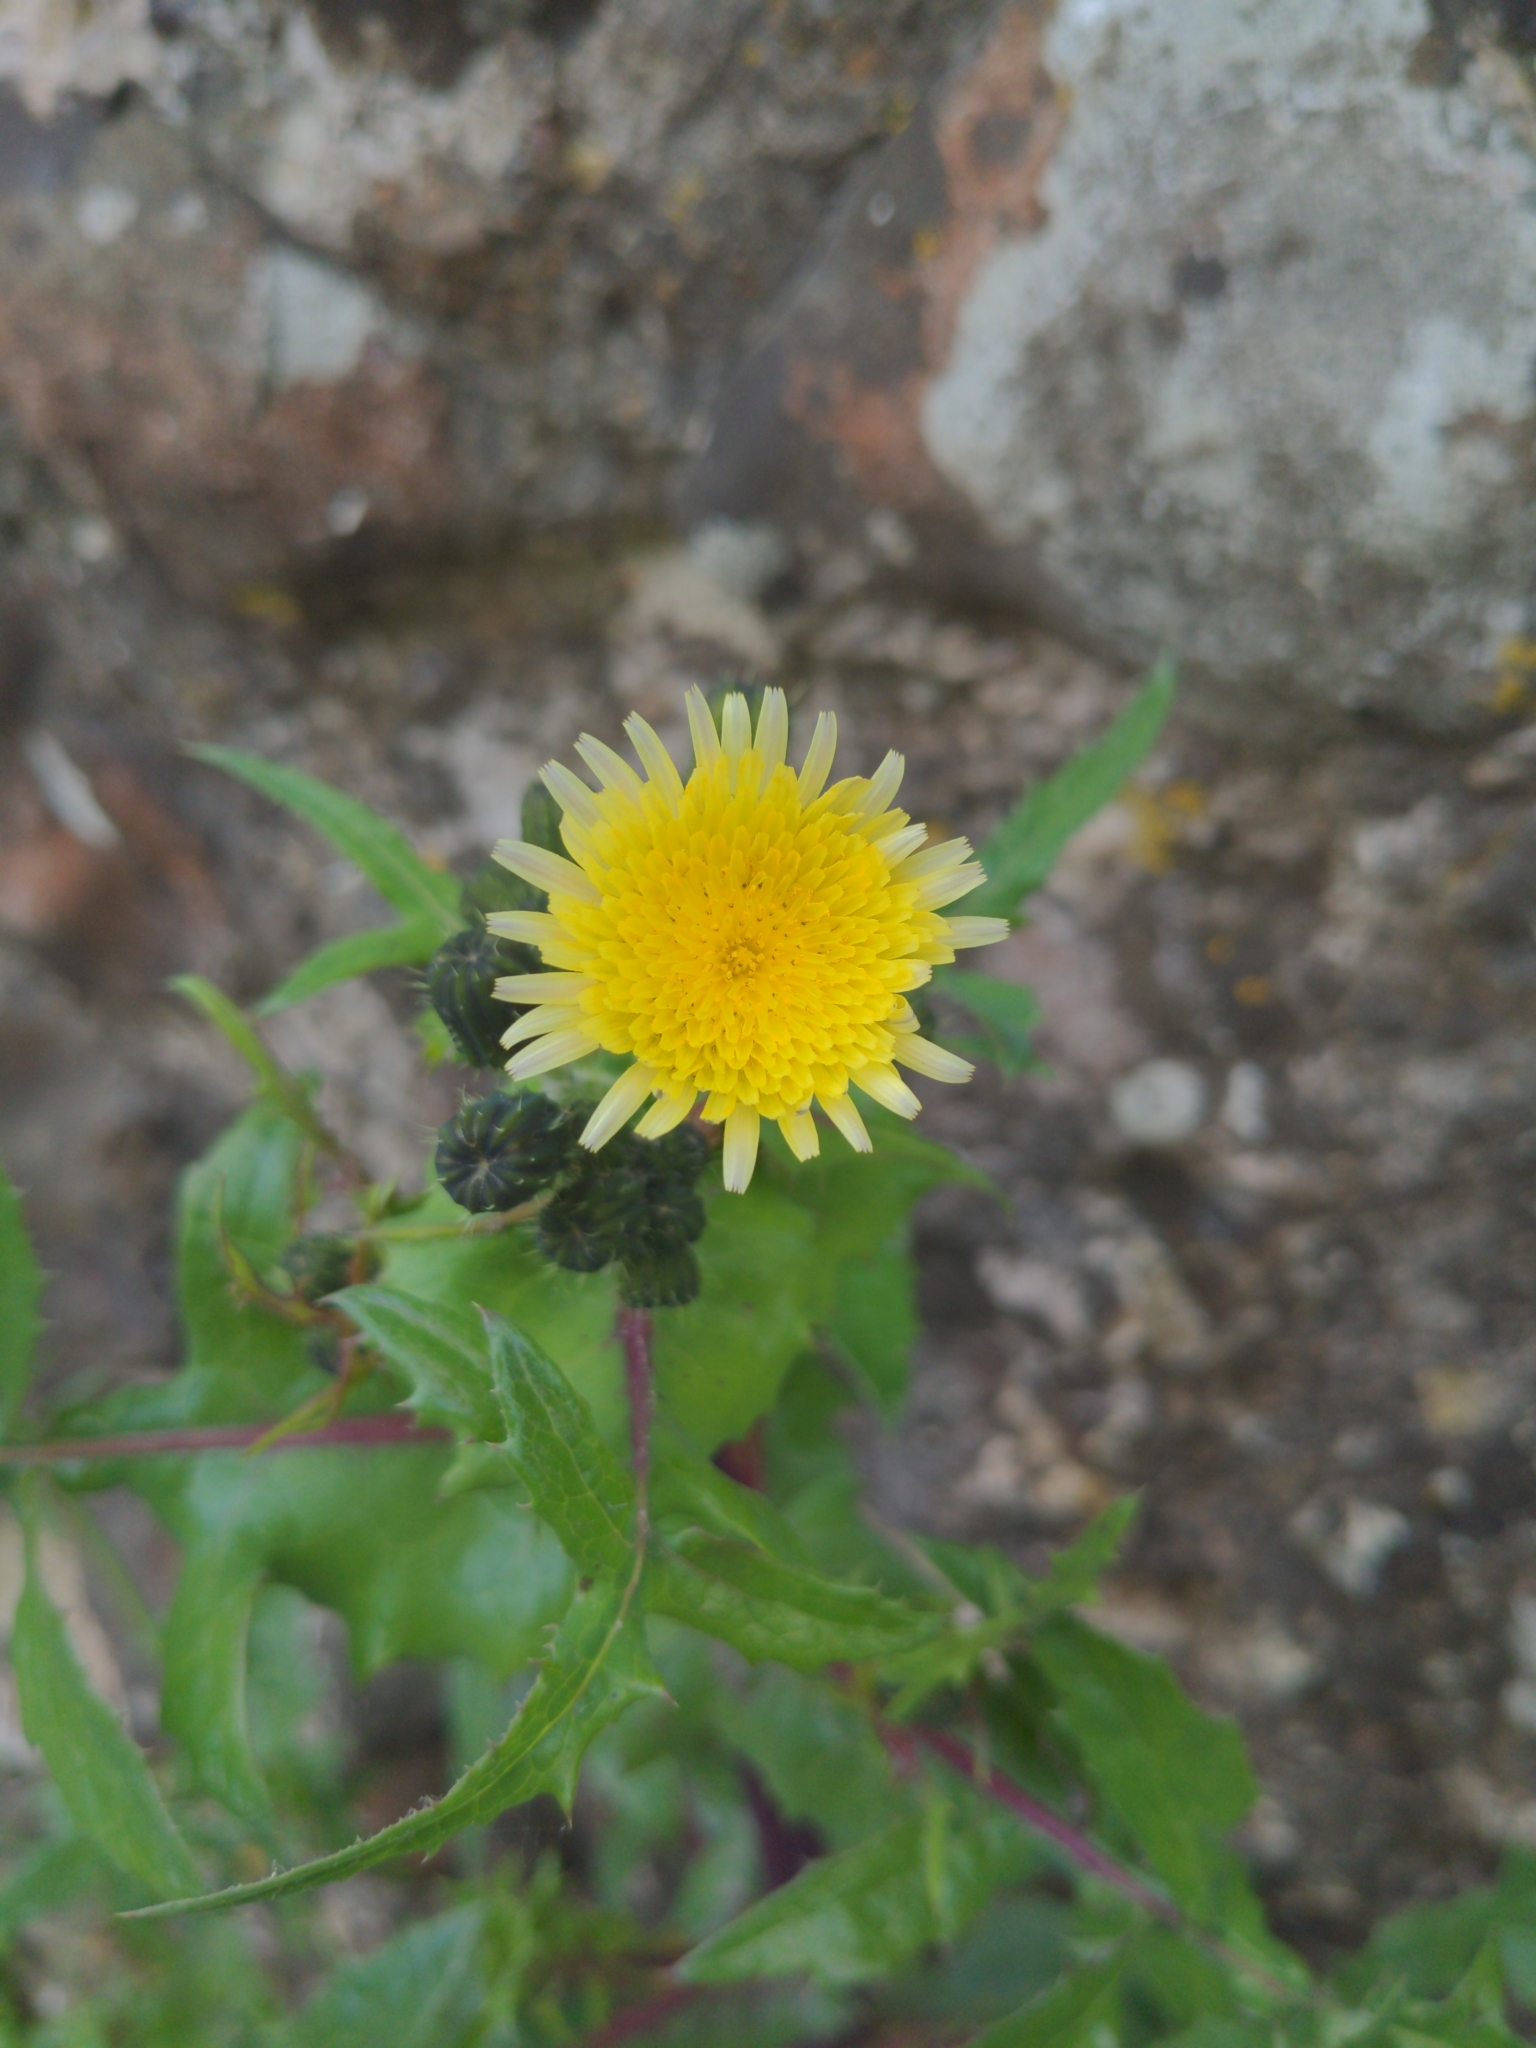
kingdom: Plantae
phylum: Tracheophyta
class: Magnoliopsida
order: Asterales
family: Asteraceae
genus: Sonchus
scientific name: Sonchus oleraceus
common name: Common sowthistle
